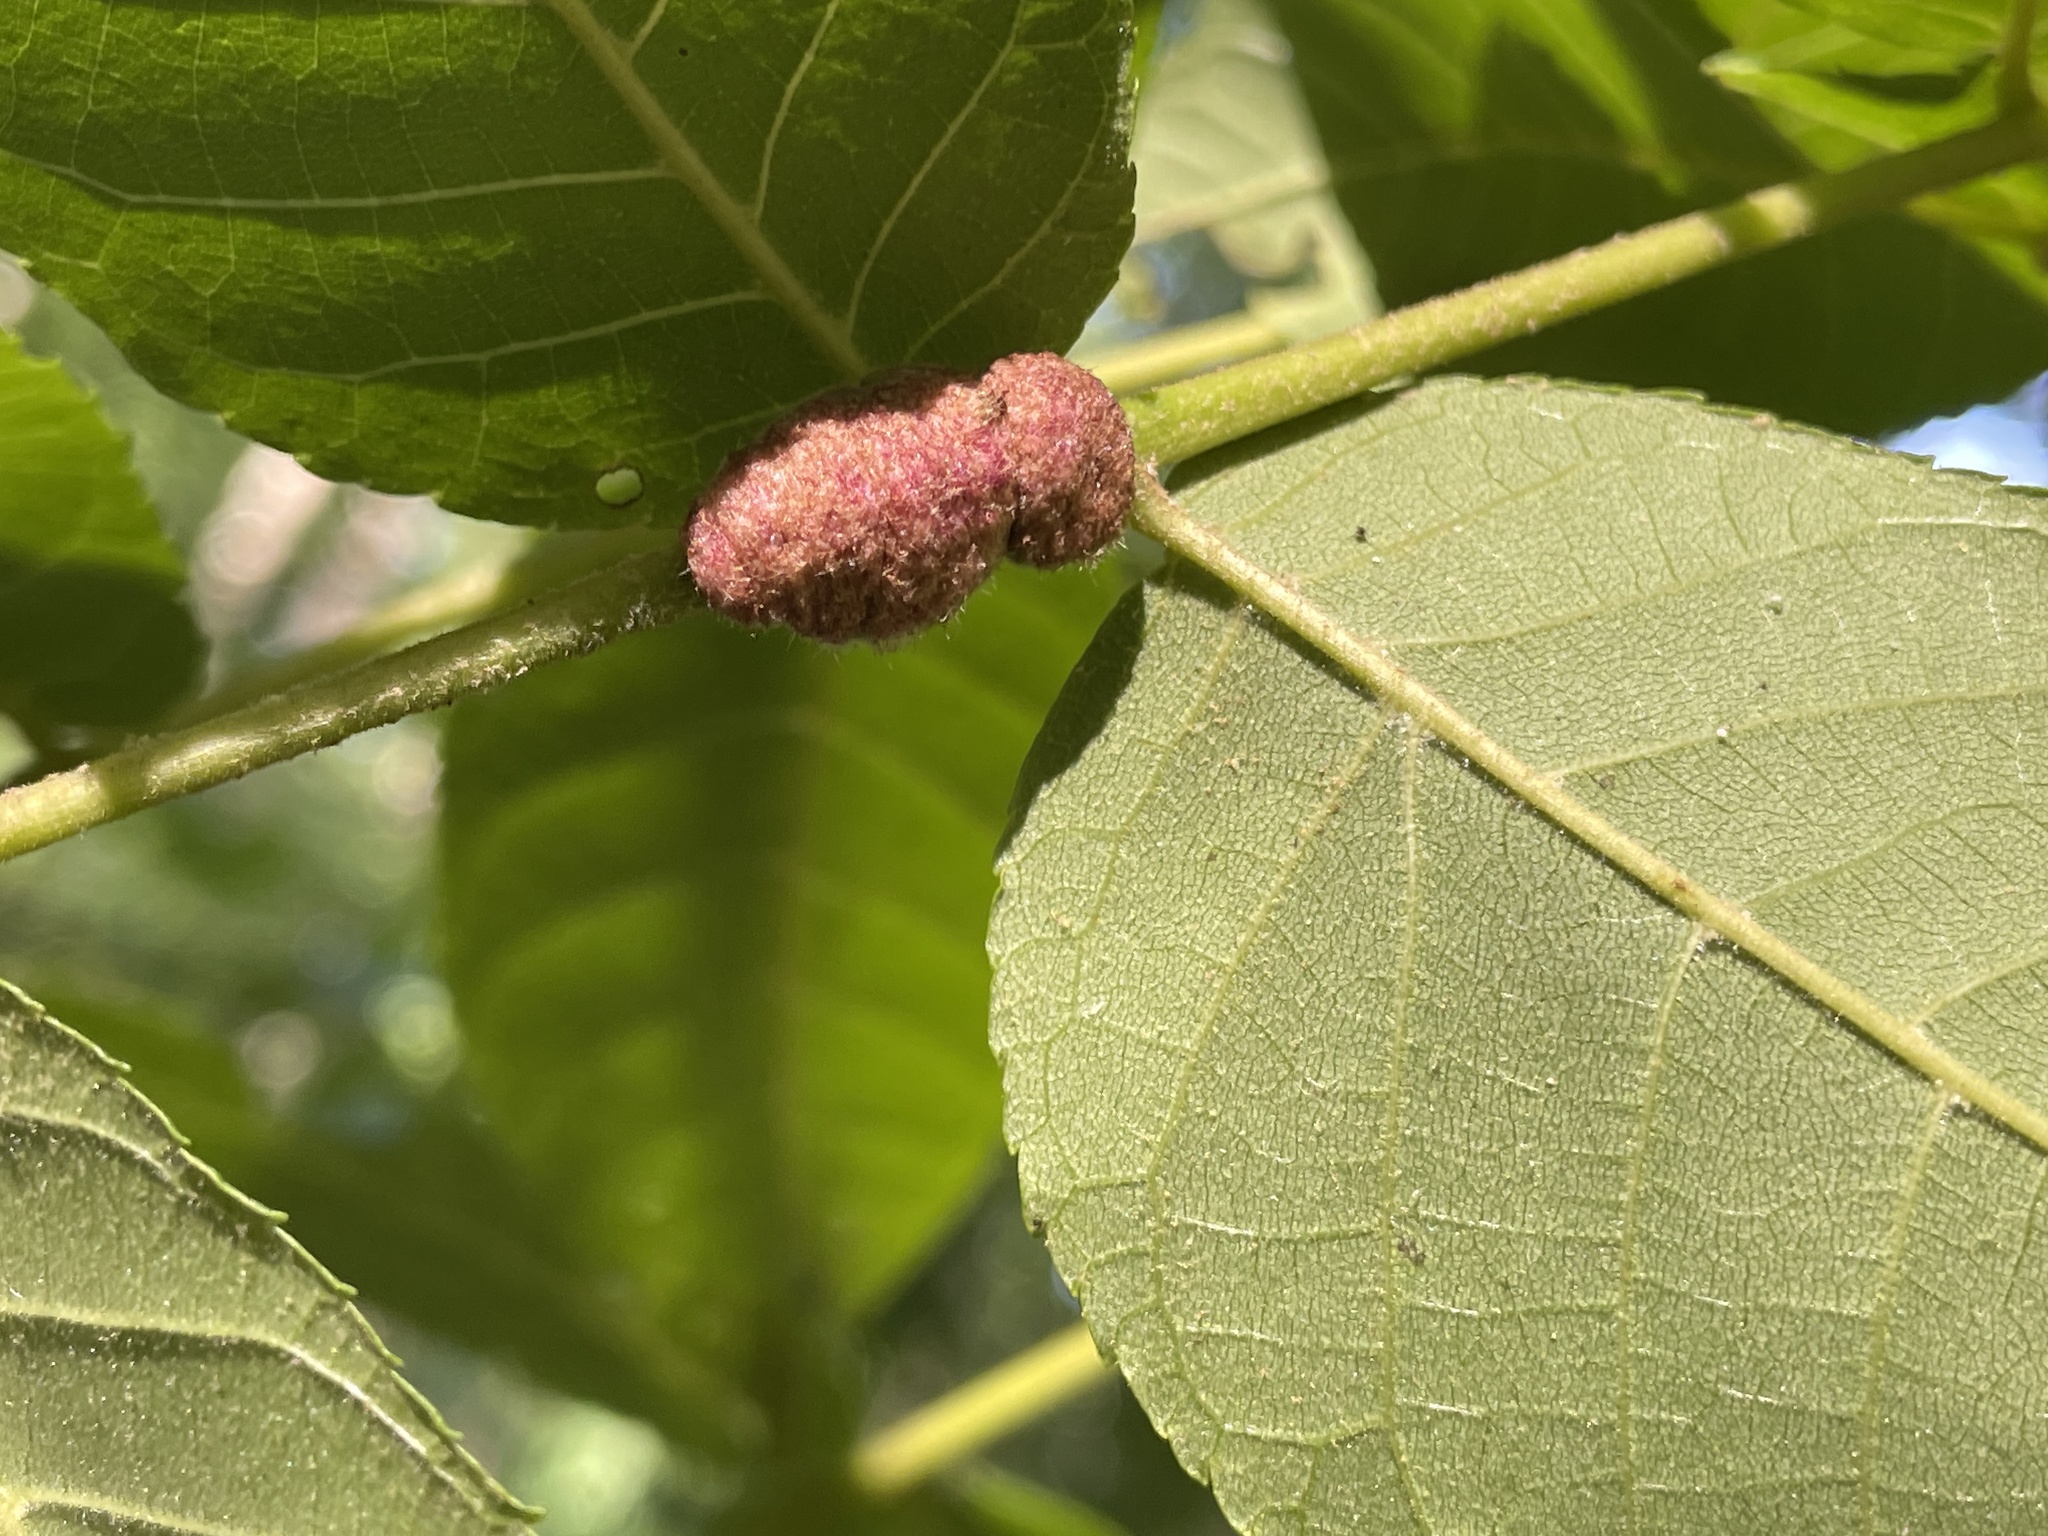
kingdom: Animalia
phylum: Arthropoda
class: Arachnida
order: Trombidiformes
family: Eriophyidae
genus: Aceria
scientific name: Aceria
